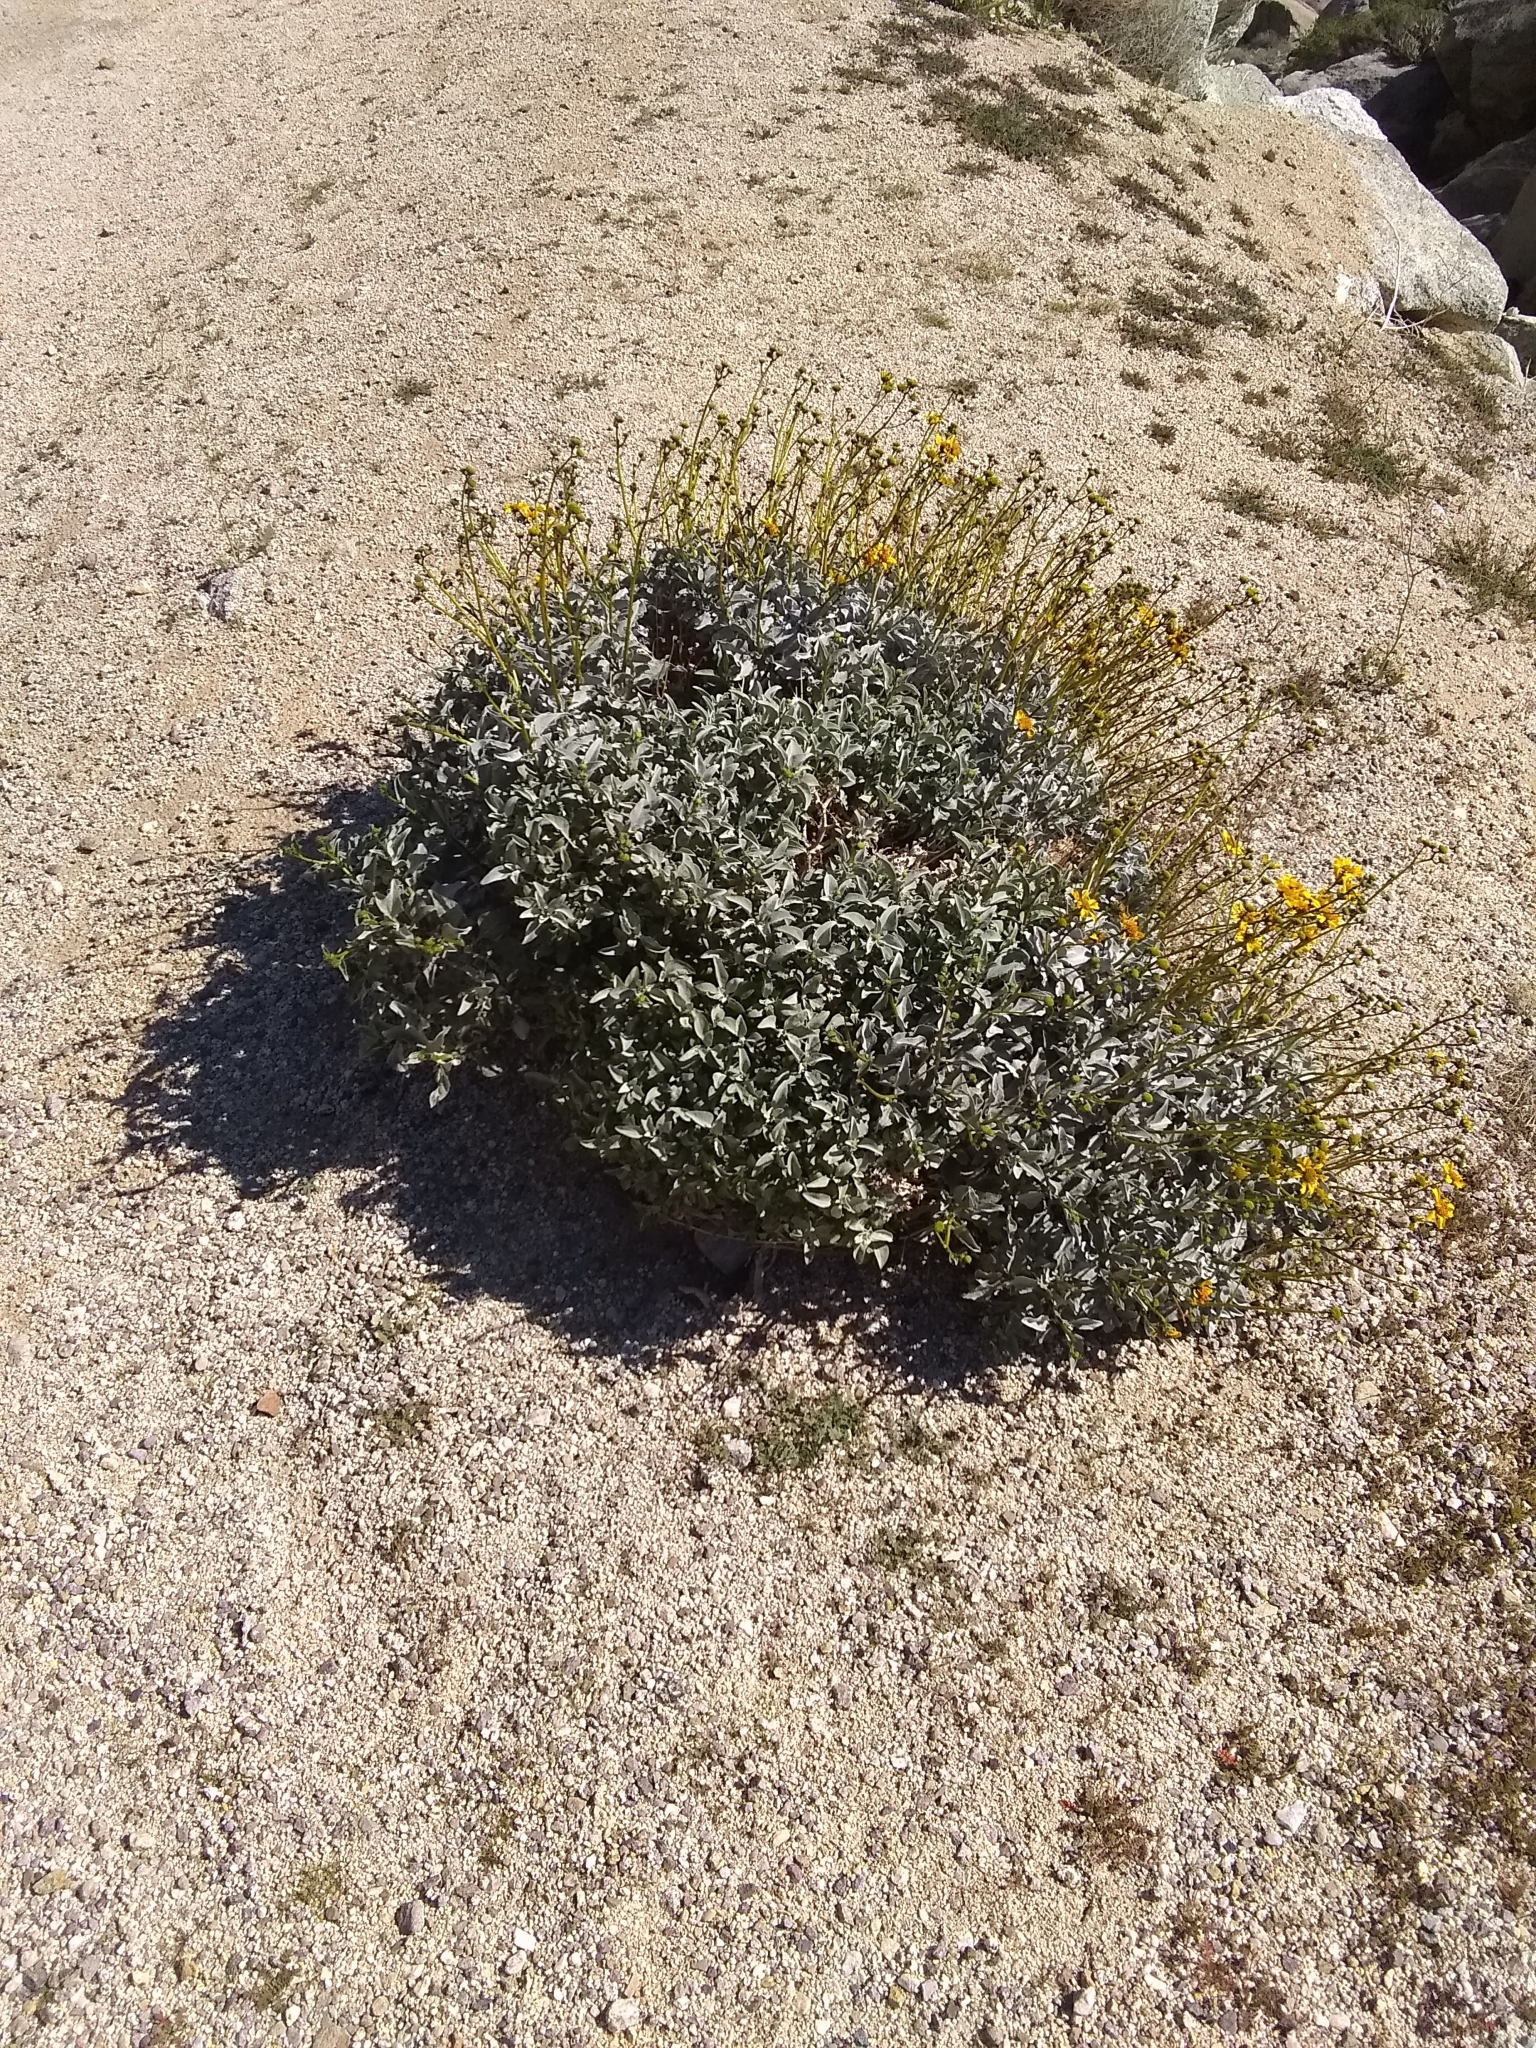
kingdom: Plantae
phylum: Tracheophyta
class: Magnoliopsida
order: Asterales
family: Asteraceae
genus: Encelia
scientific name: Encelia farinosa
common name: Brittlebush
